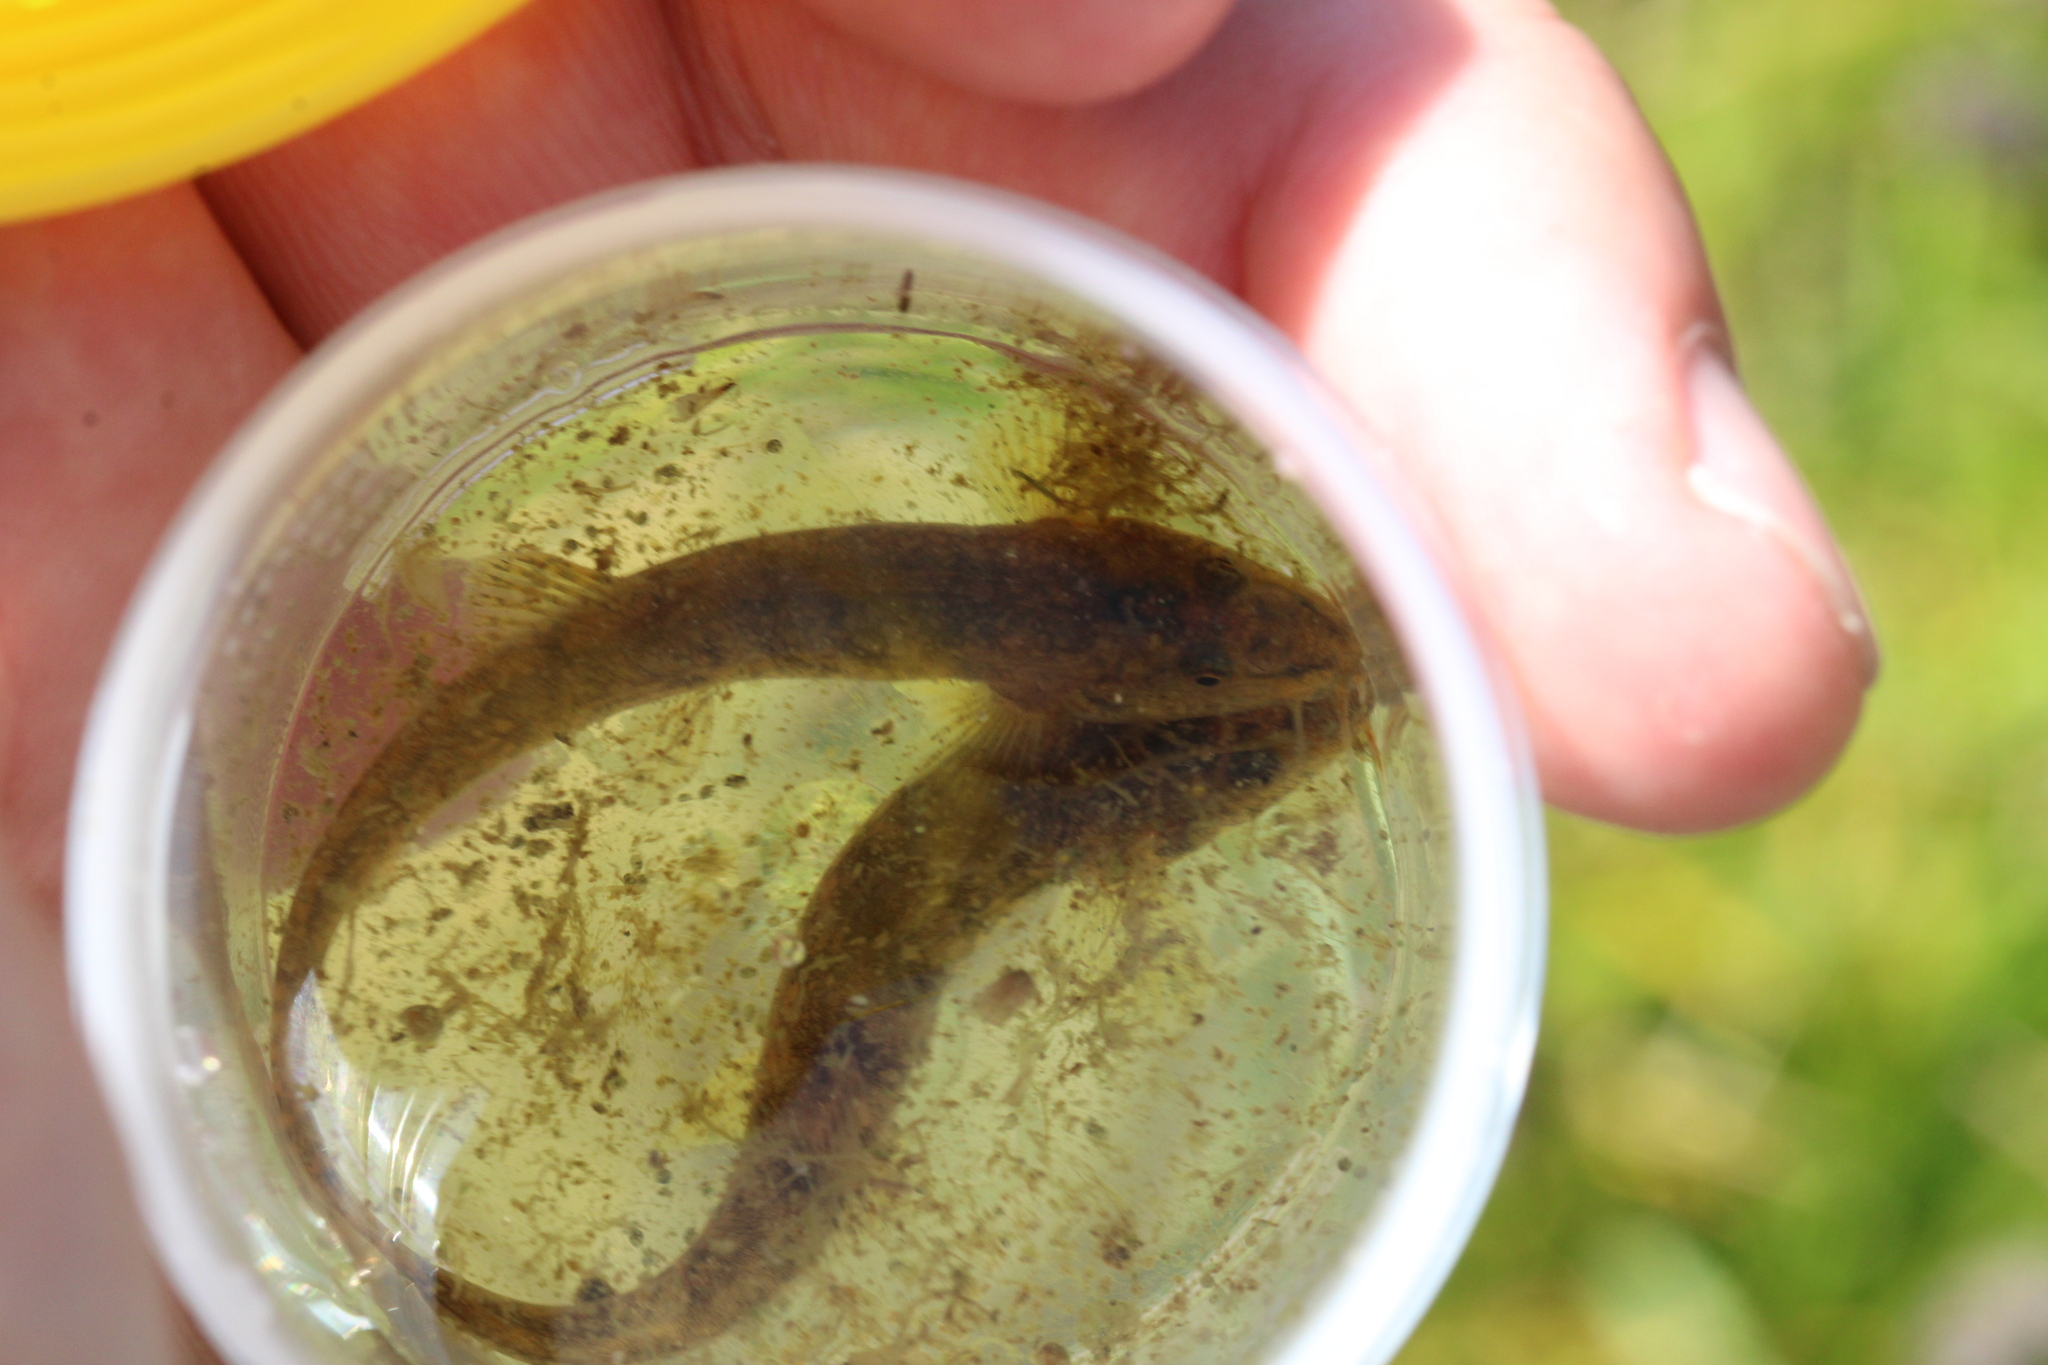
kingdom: Animalia
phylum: Chordata
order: Cypriniformes
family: Nemacheilidae
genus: Barbatula
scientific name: Barbatula barbatula
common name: Stone loach
